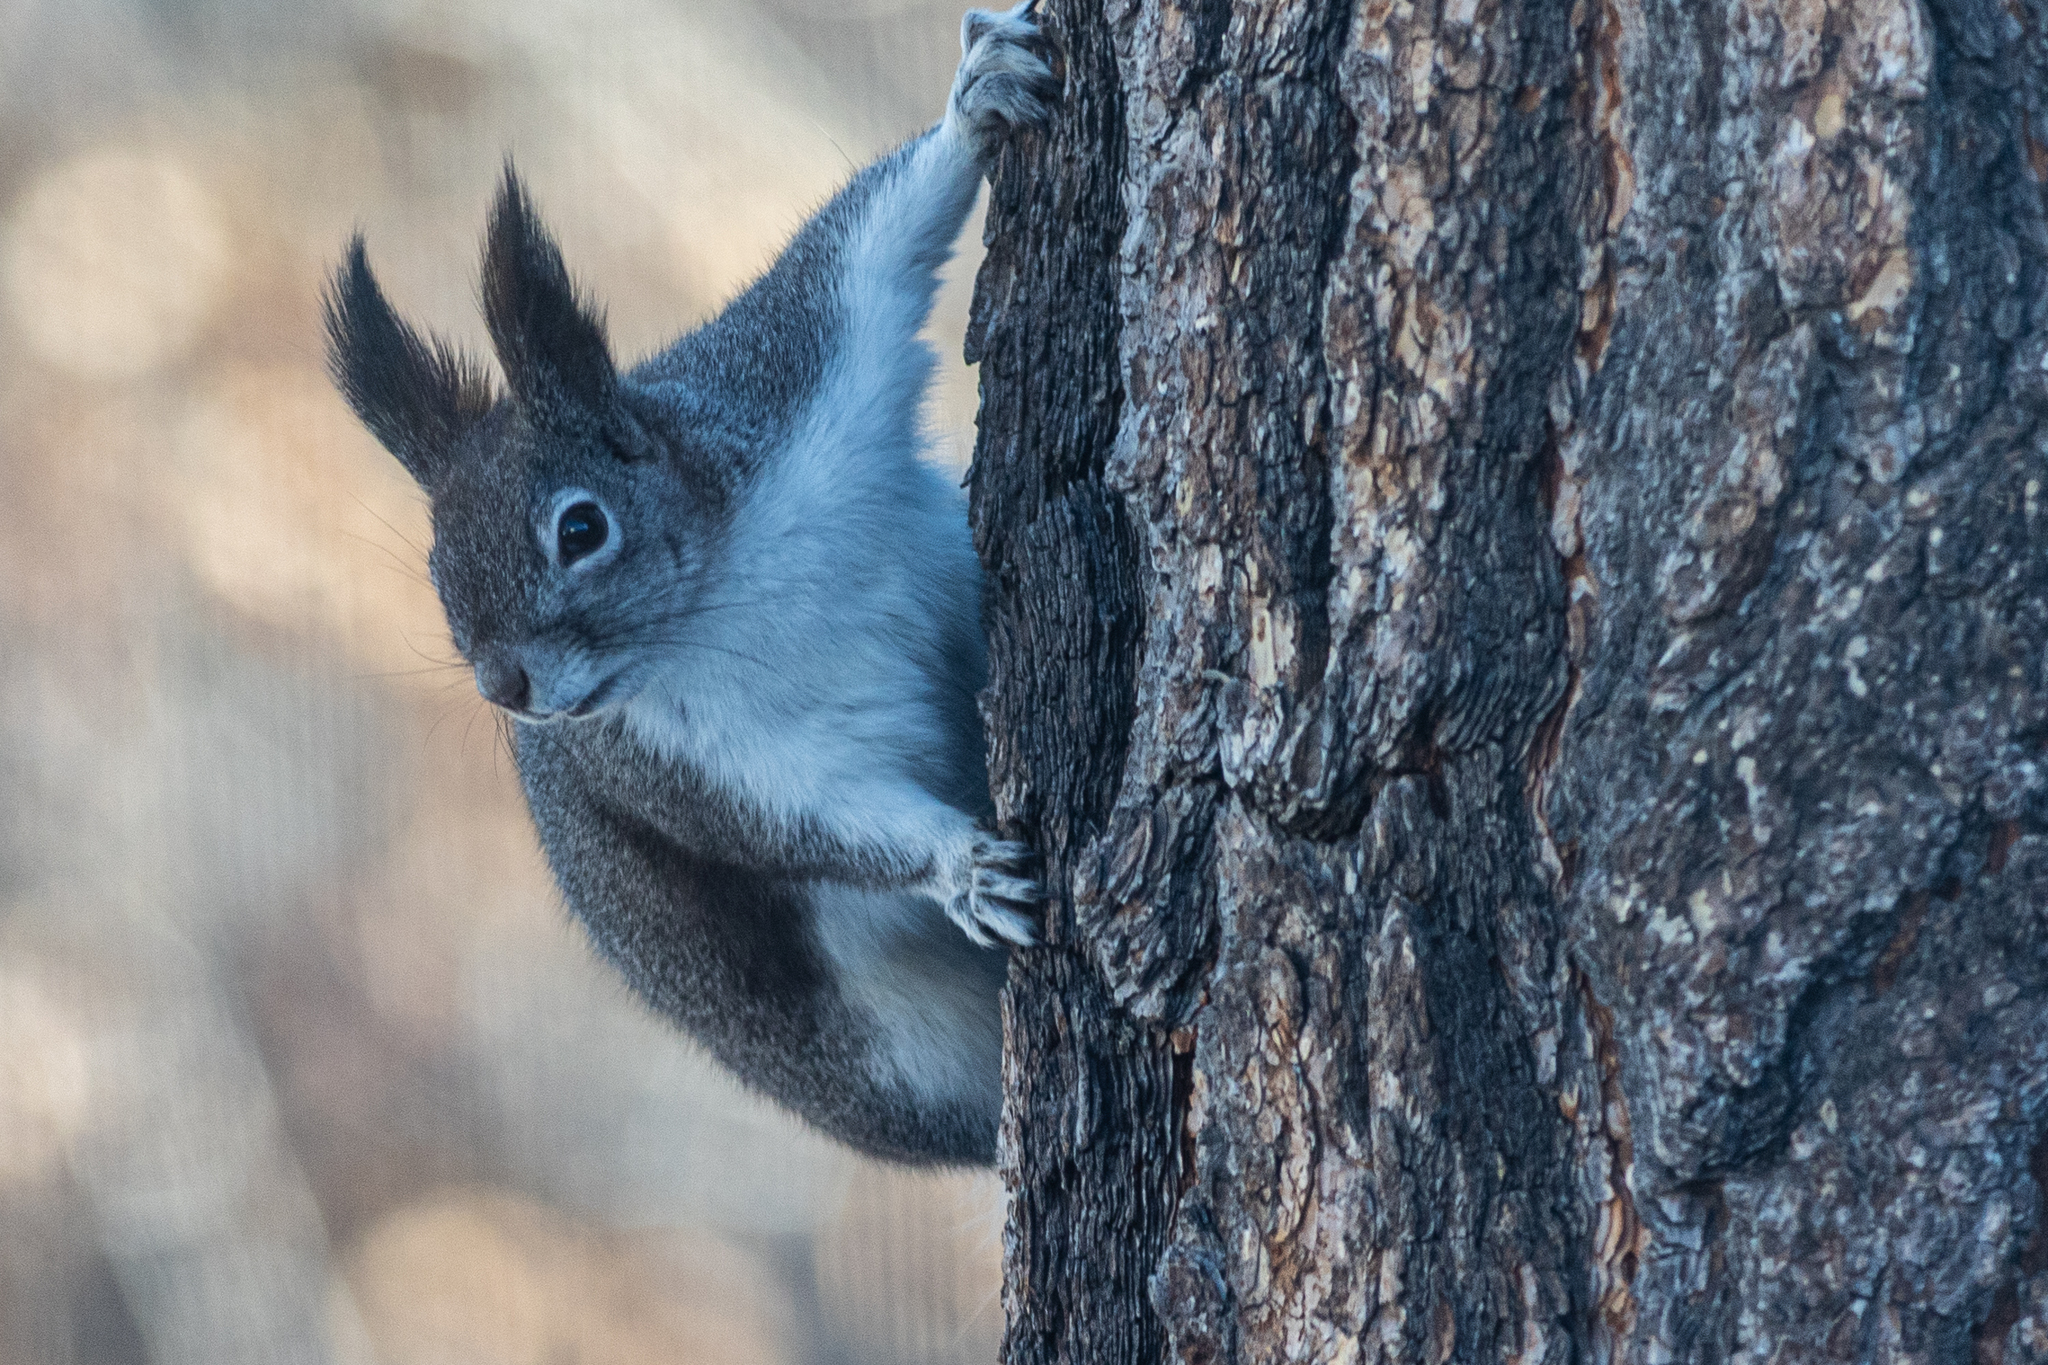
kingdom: Animalia
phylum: Chordata
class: Mammalia
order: Rodentia
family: Sciuridae
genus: Sciurus
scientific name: Sciurus aberti
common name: Abert's squirrel
